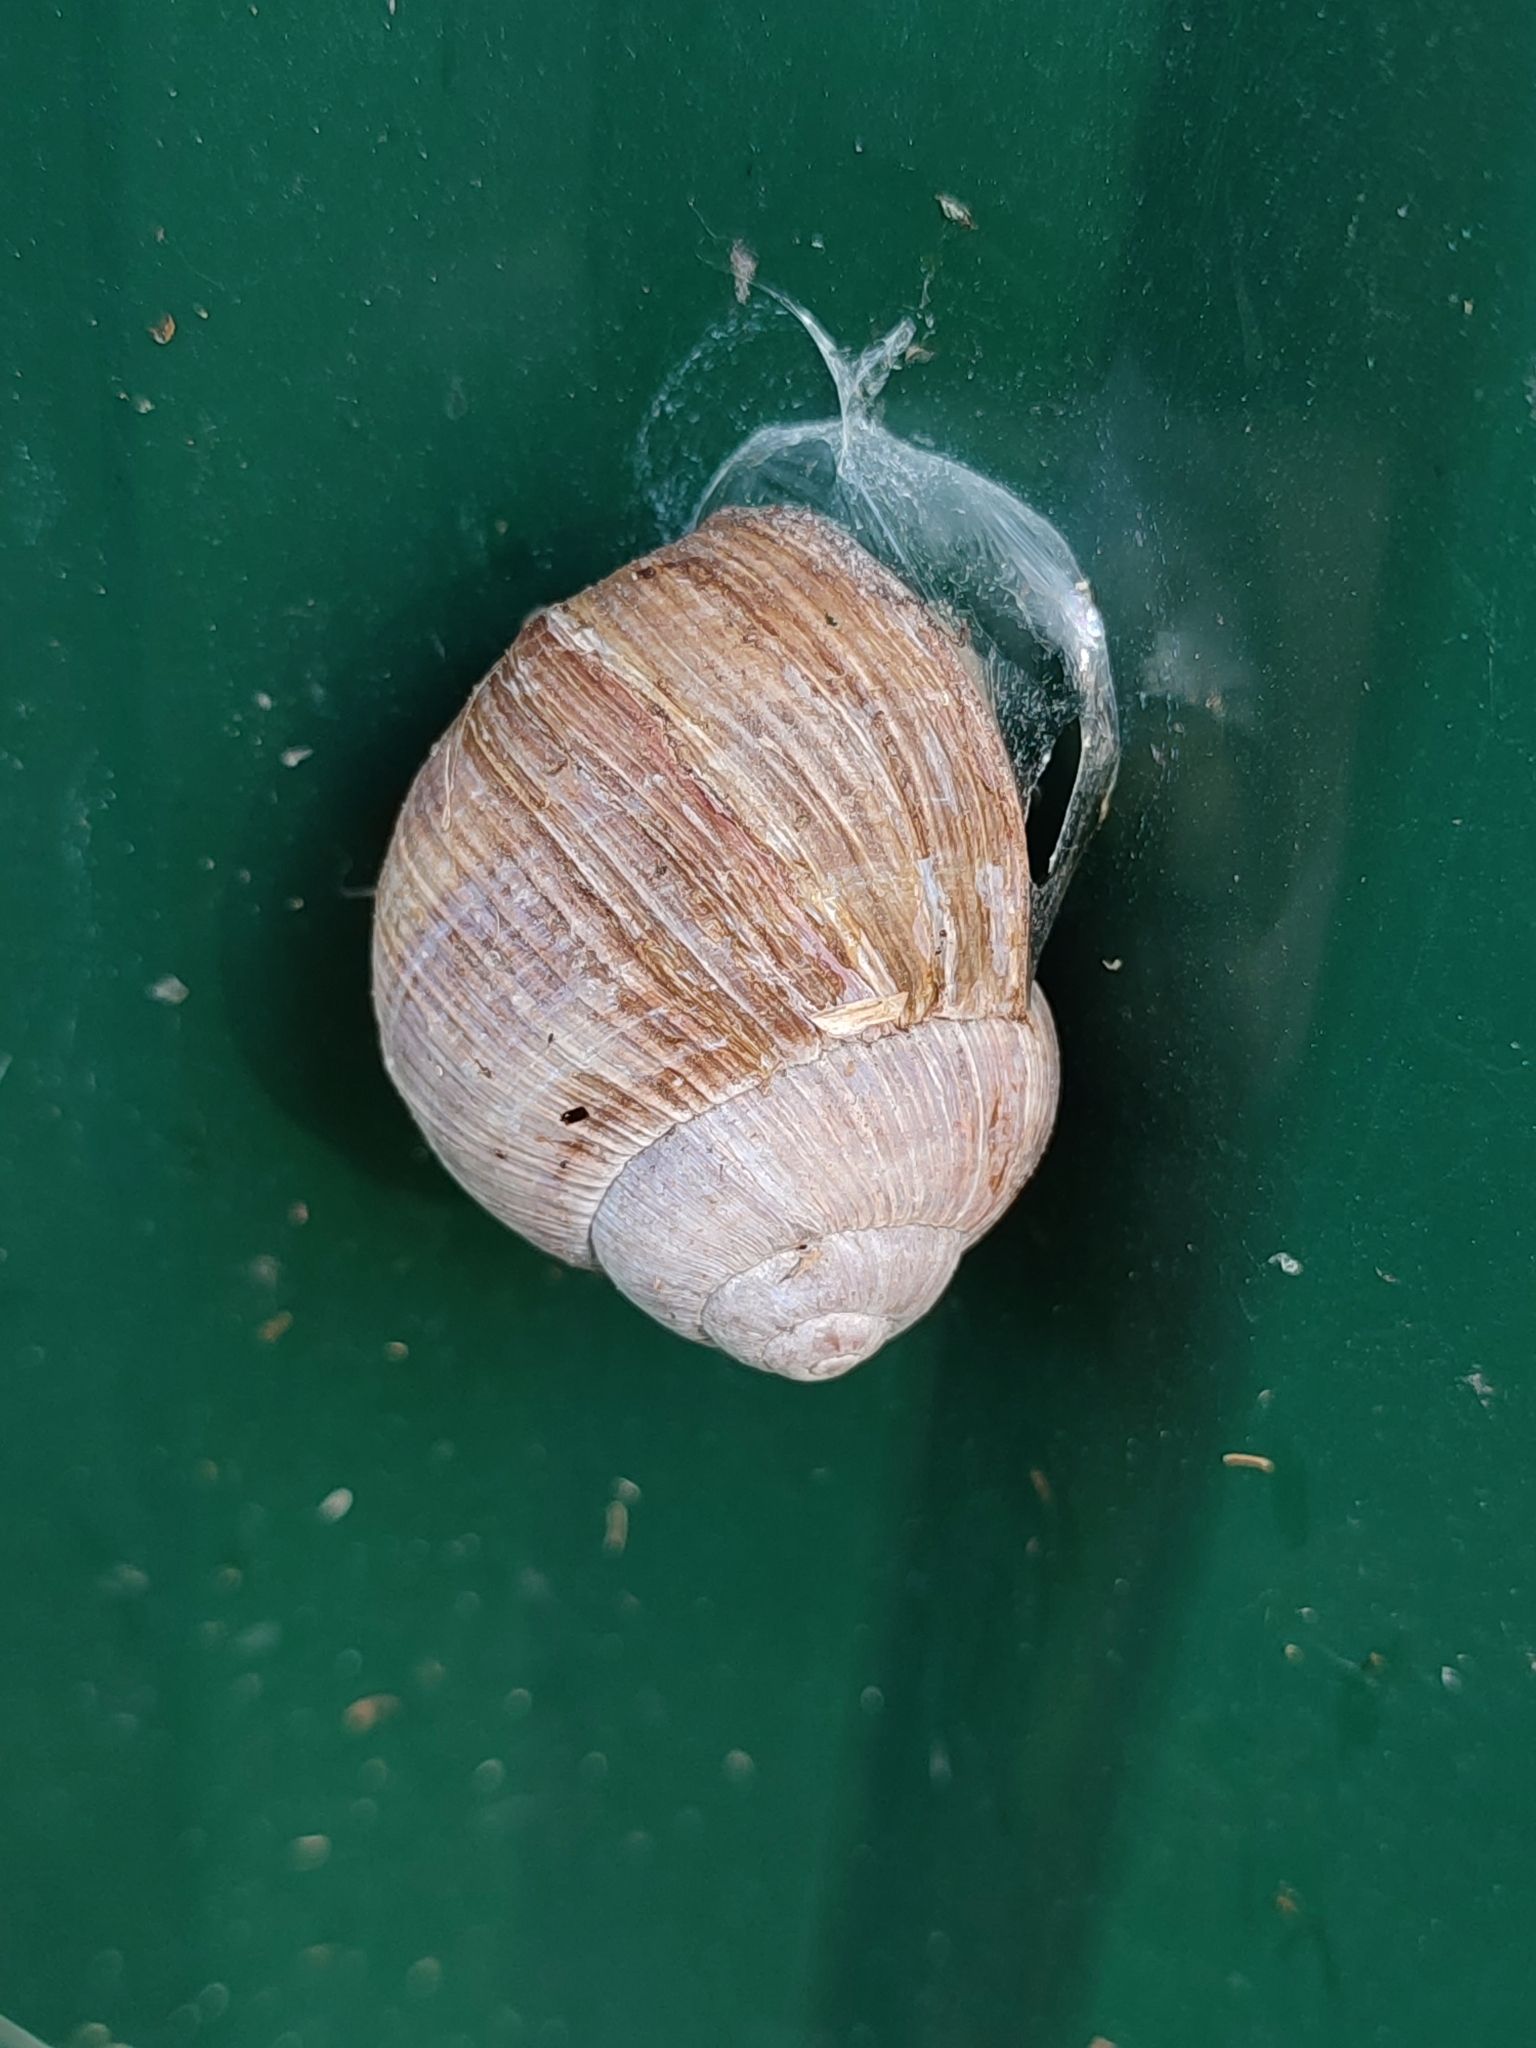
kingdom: Animalia
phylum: Mollusca
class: Gastropoda
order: Stylommatophora
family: Helicidae
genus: Helix
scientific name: Helix pomatia
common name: Roman snail
